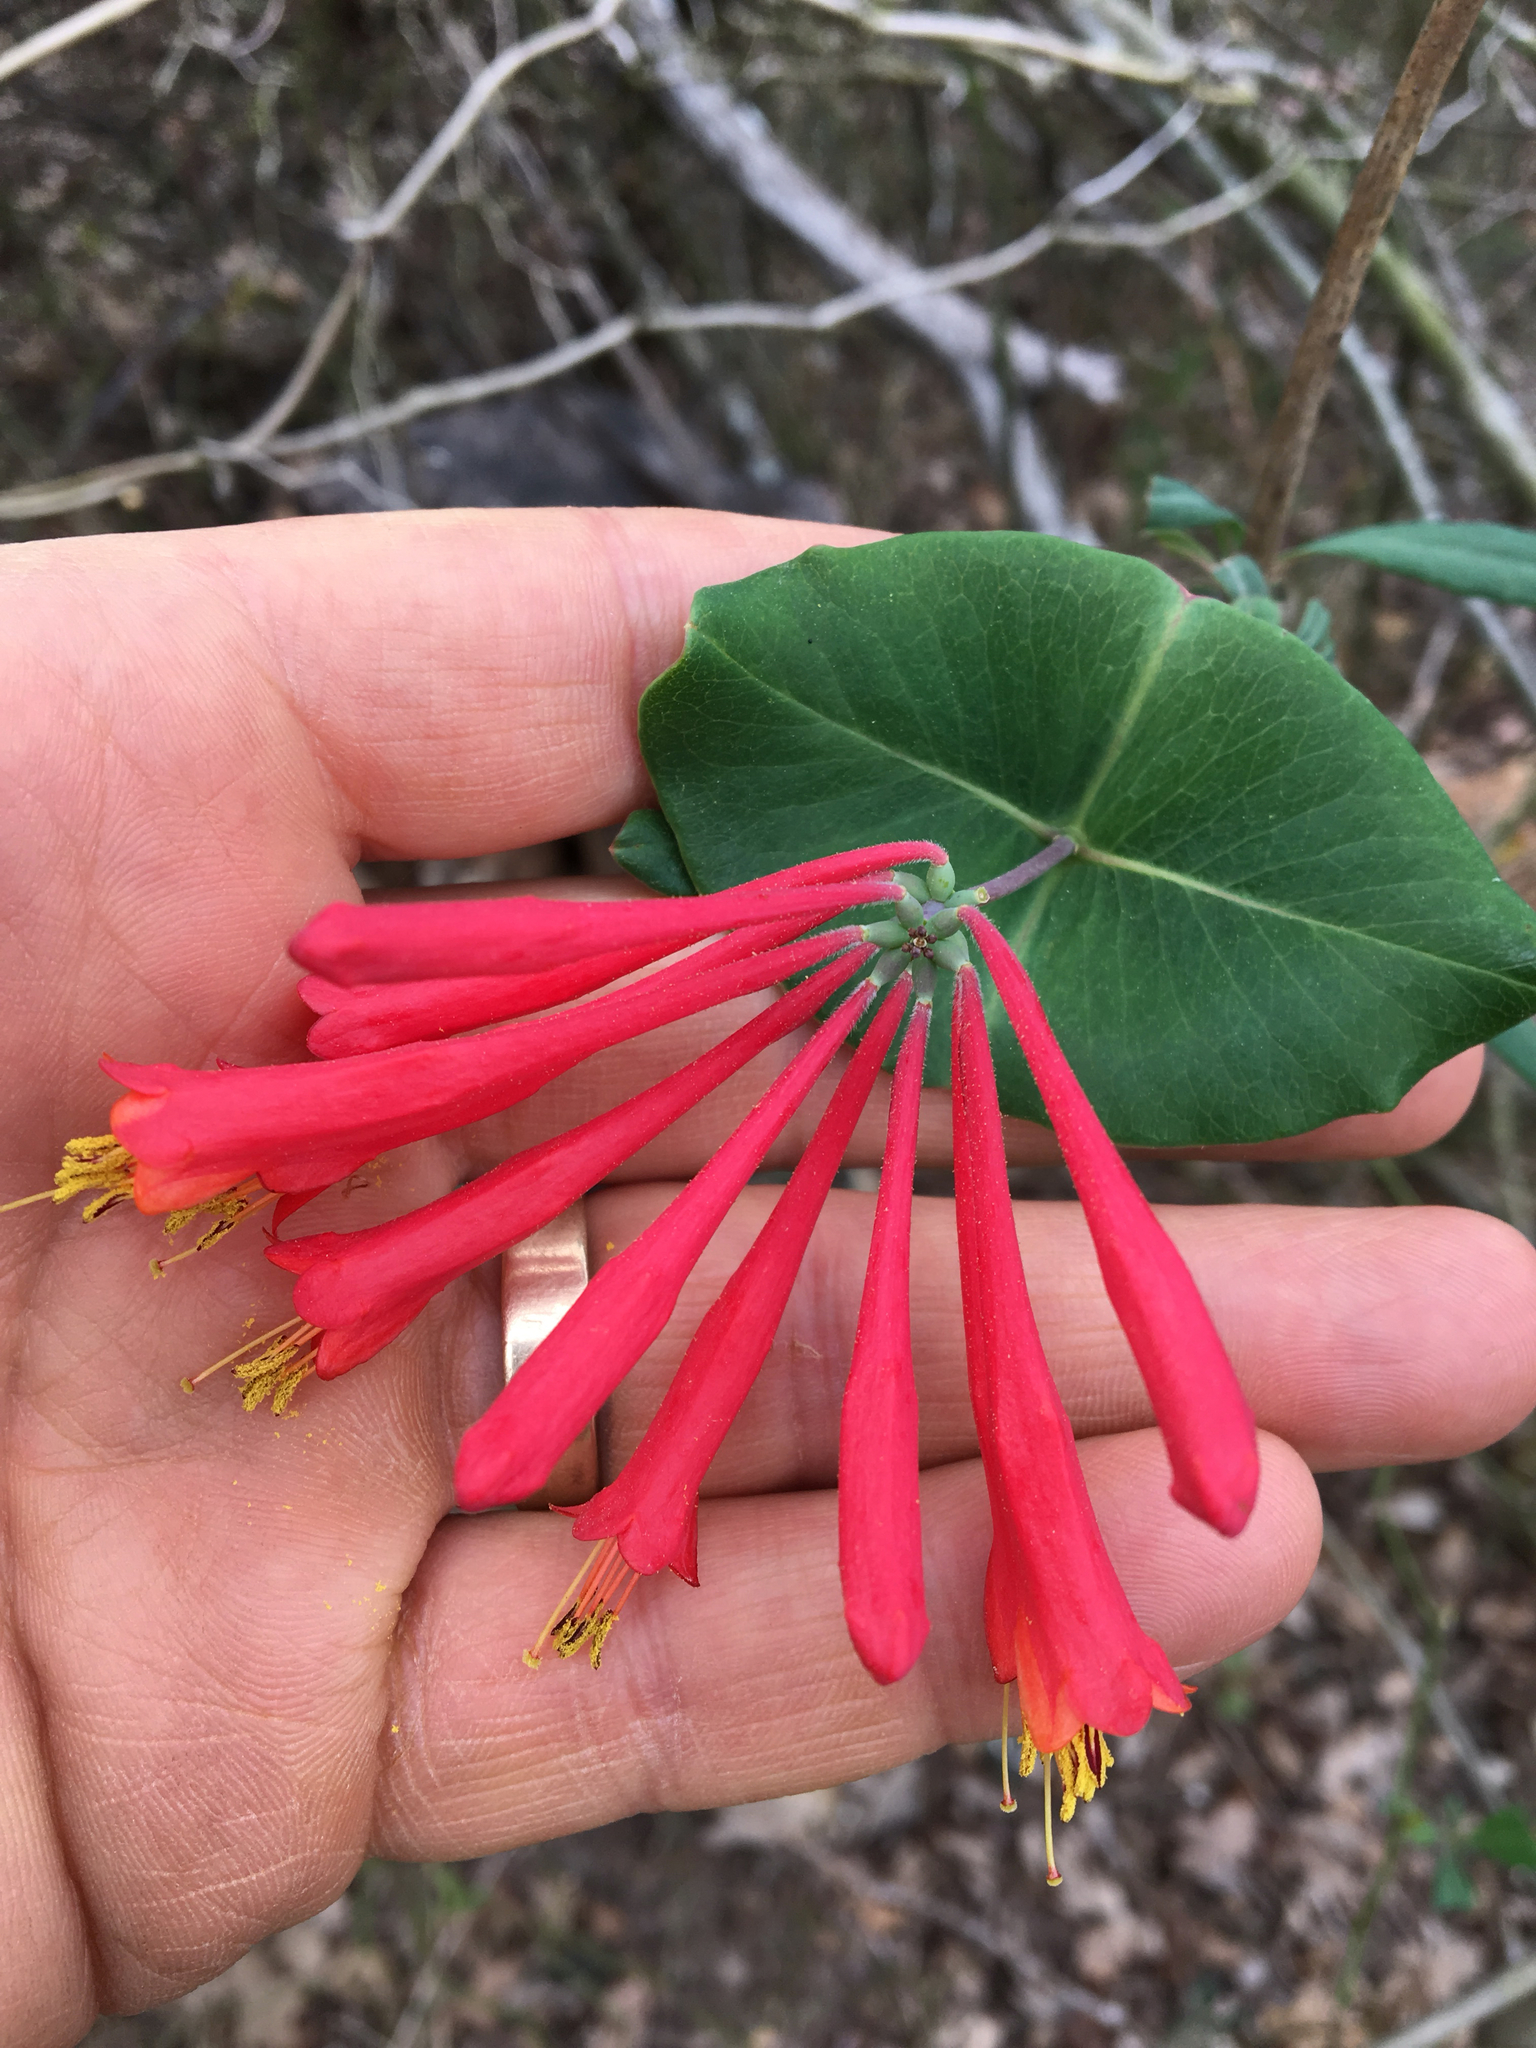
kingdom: Plantae
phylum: Tracheophyta
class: Magnoliopsida
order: Dipsacales
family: Caprifoliaceae
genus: Lonicera
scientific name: Lonicera sempervirens
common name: Coral honeysuckle
